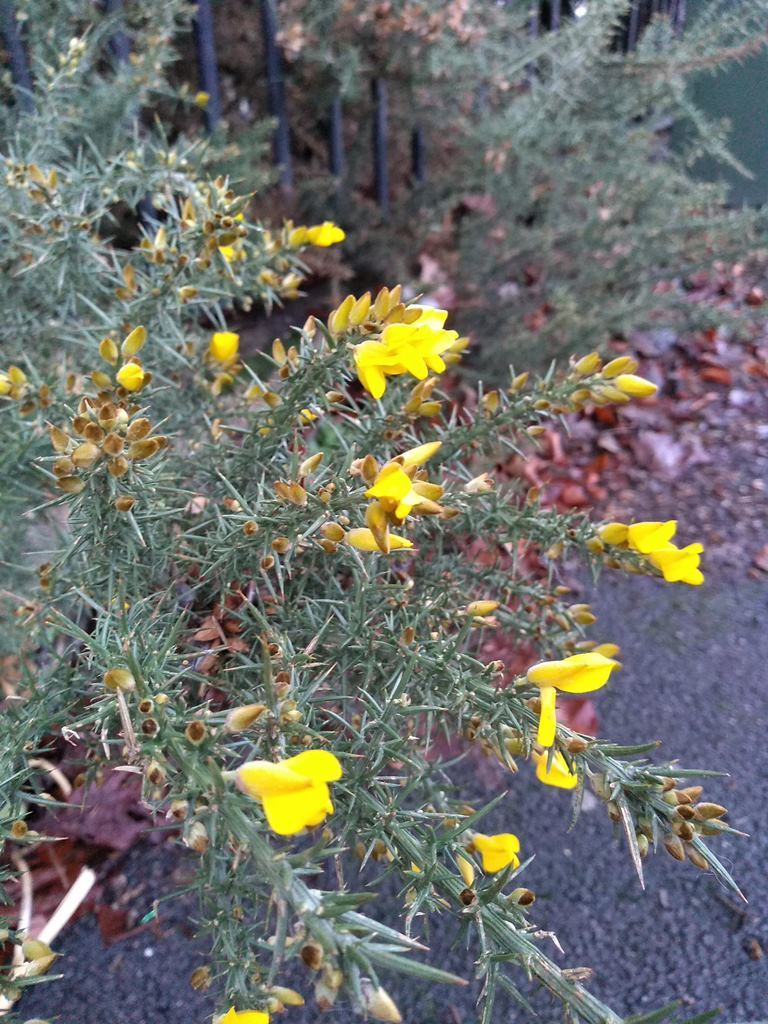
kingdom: Plantae
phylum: Tracheophyta
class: Magnoliopsida
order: Fabales
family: Fabaceae
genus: Ulex
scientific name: Ulex europaeus
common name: Common gorse
